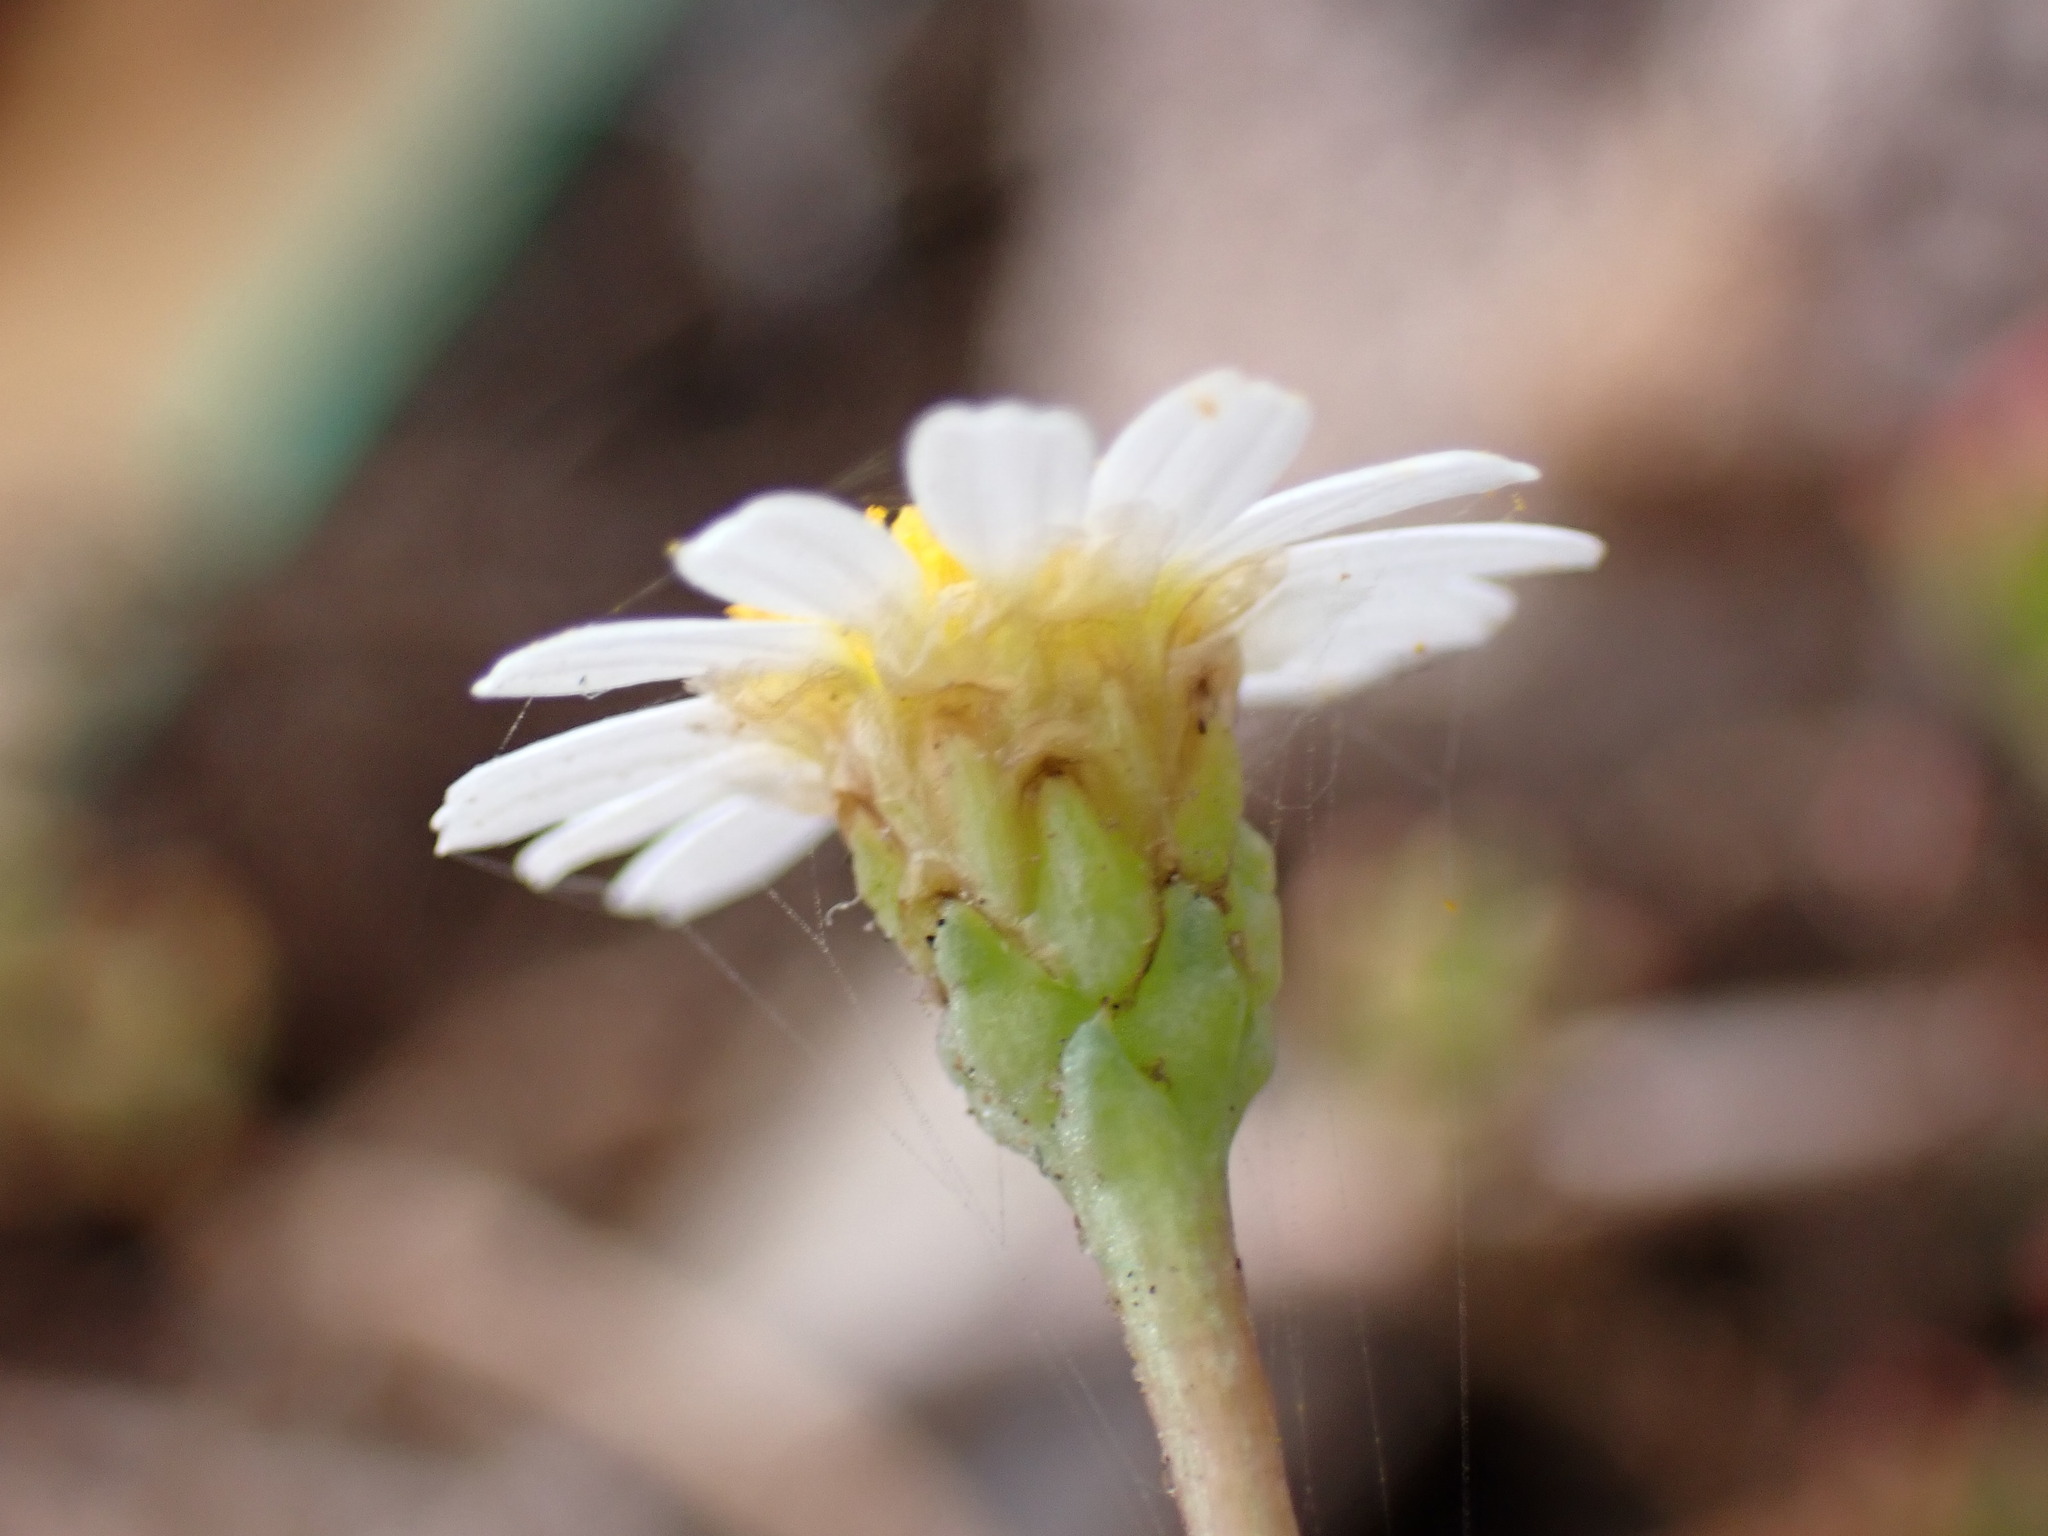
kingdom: Plantae
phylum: Tracheophyta
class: Magnoliopsida
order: Asterales
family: Asteraceae
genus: Argyranthemum
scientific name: Argyranthemum frutescens
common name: Paris daisy
